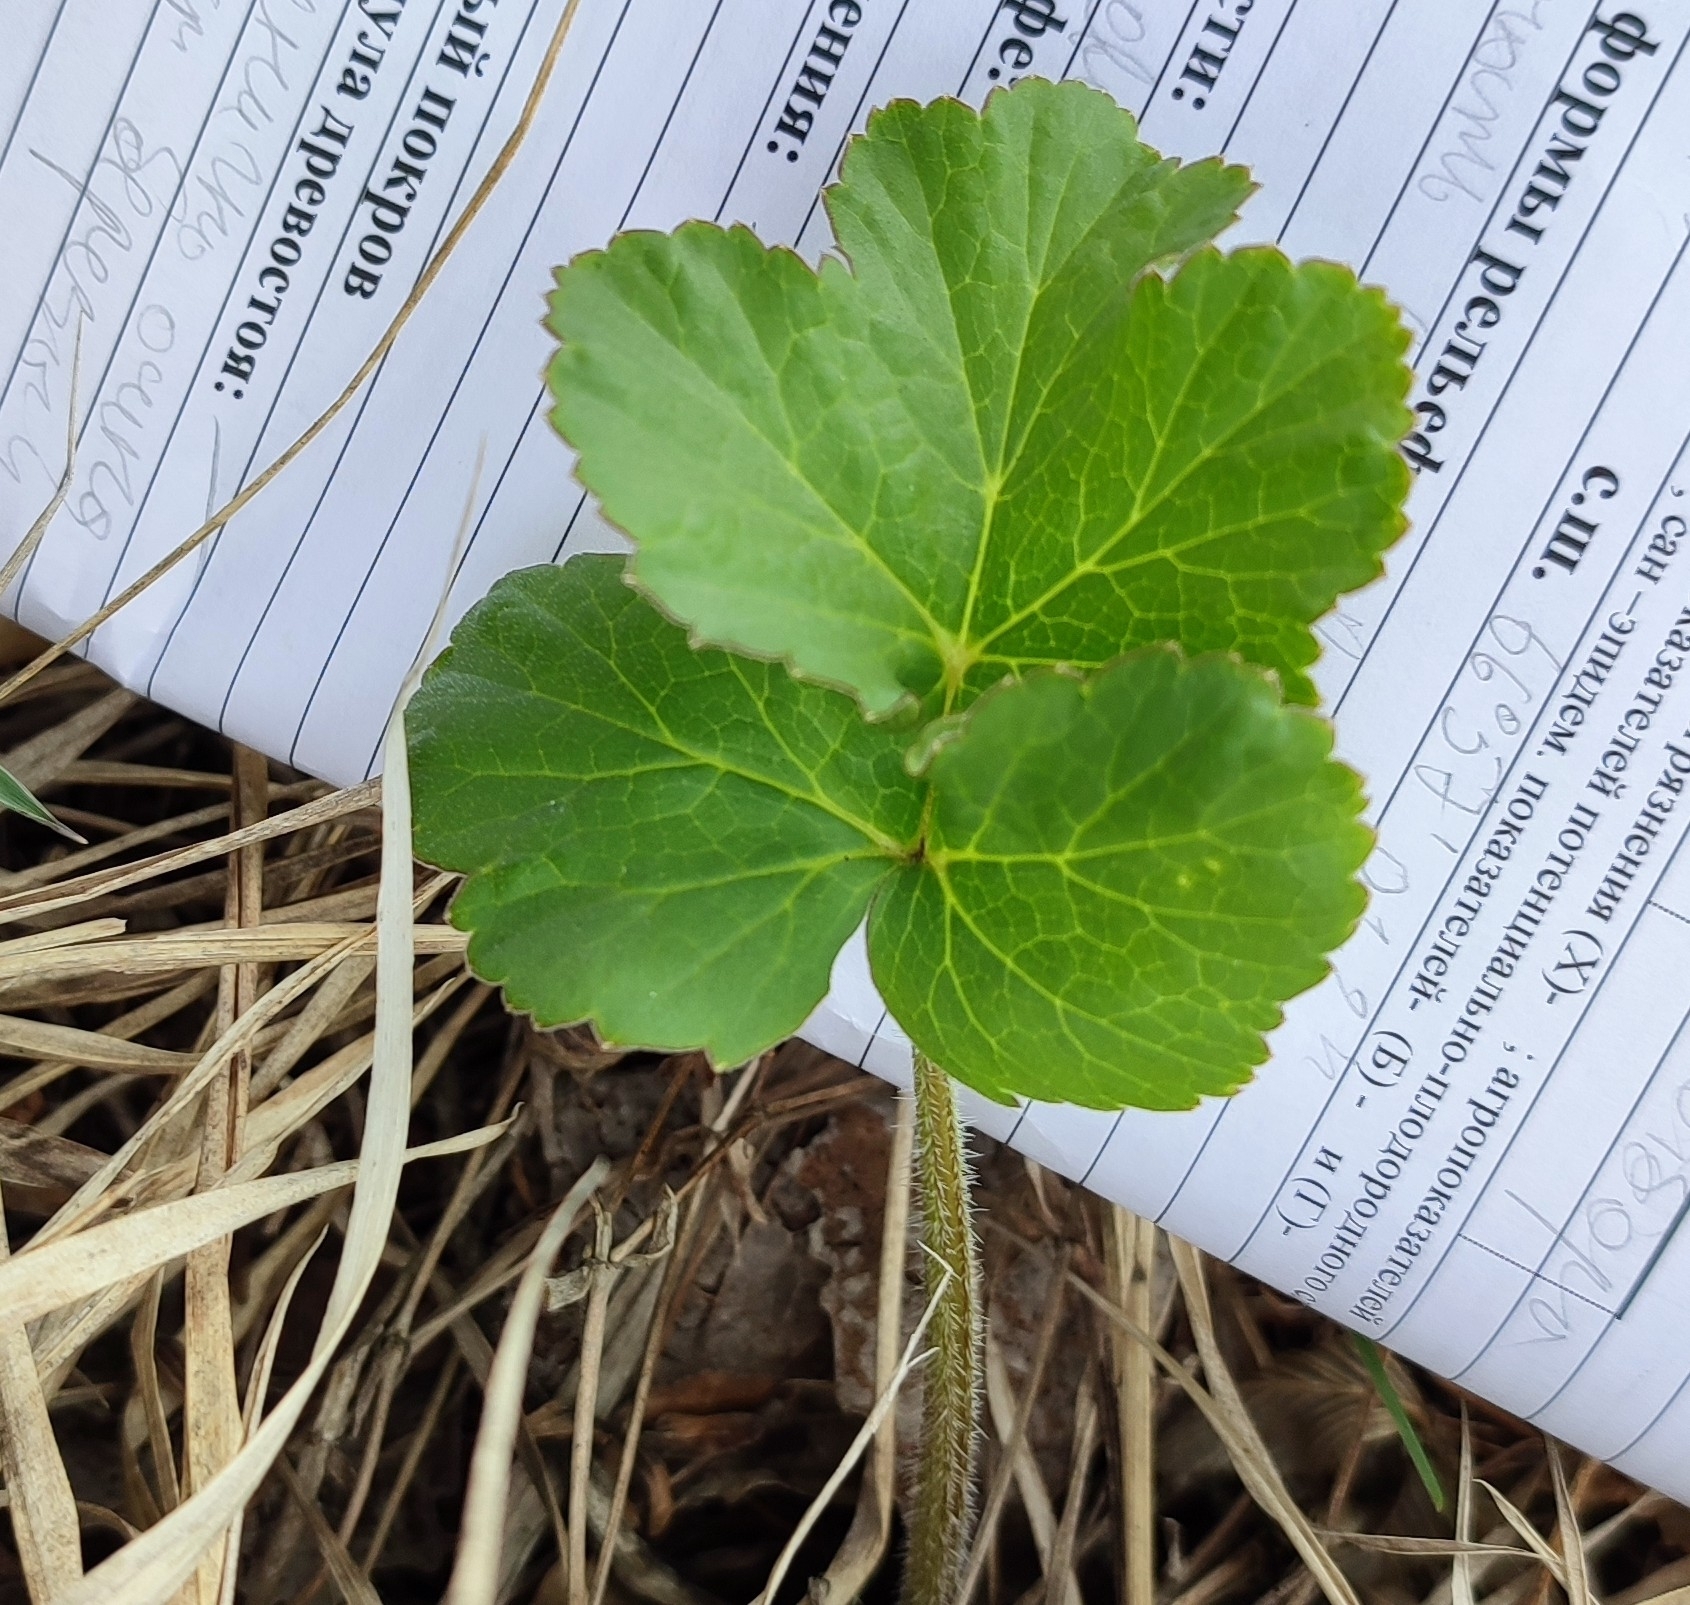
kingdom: Plantae
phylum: Tracheophyta
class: Magnoliopsida
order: Apiales
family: Apiaceae
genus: Heracleum
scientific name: Heracleum sphondylium
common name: Hogweed
